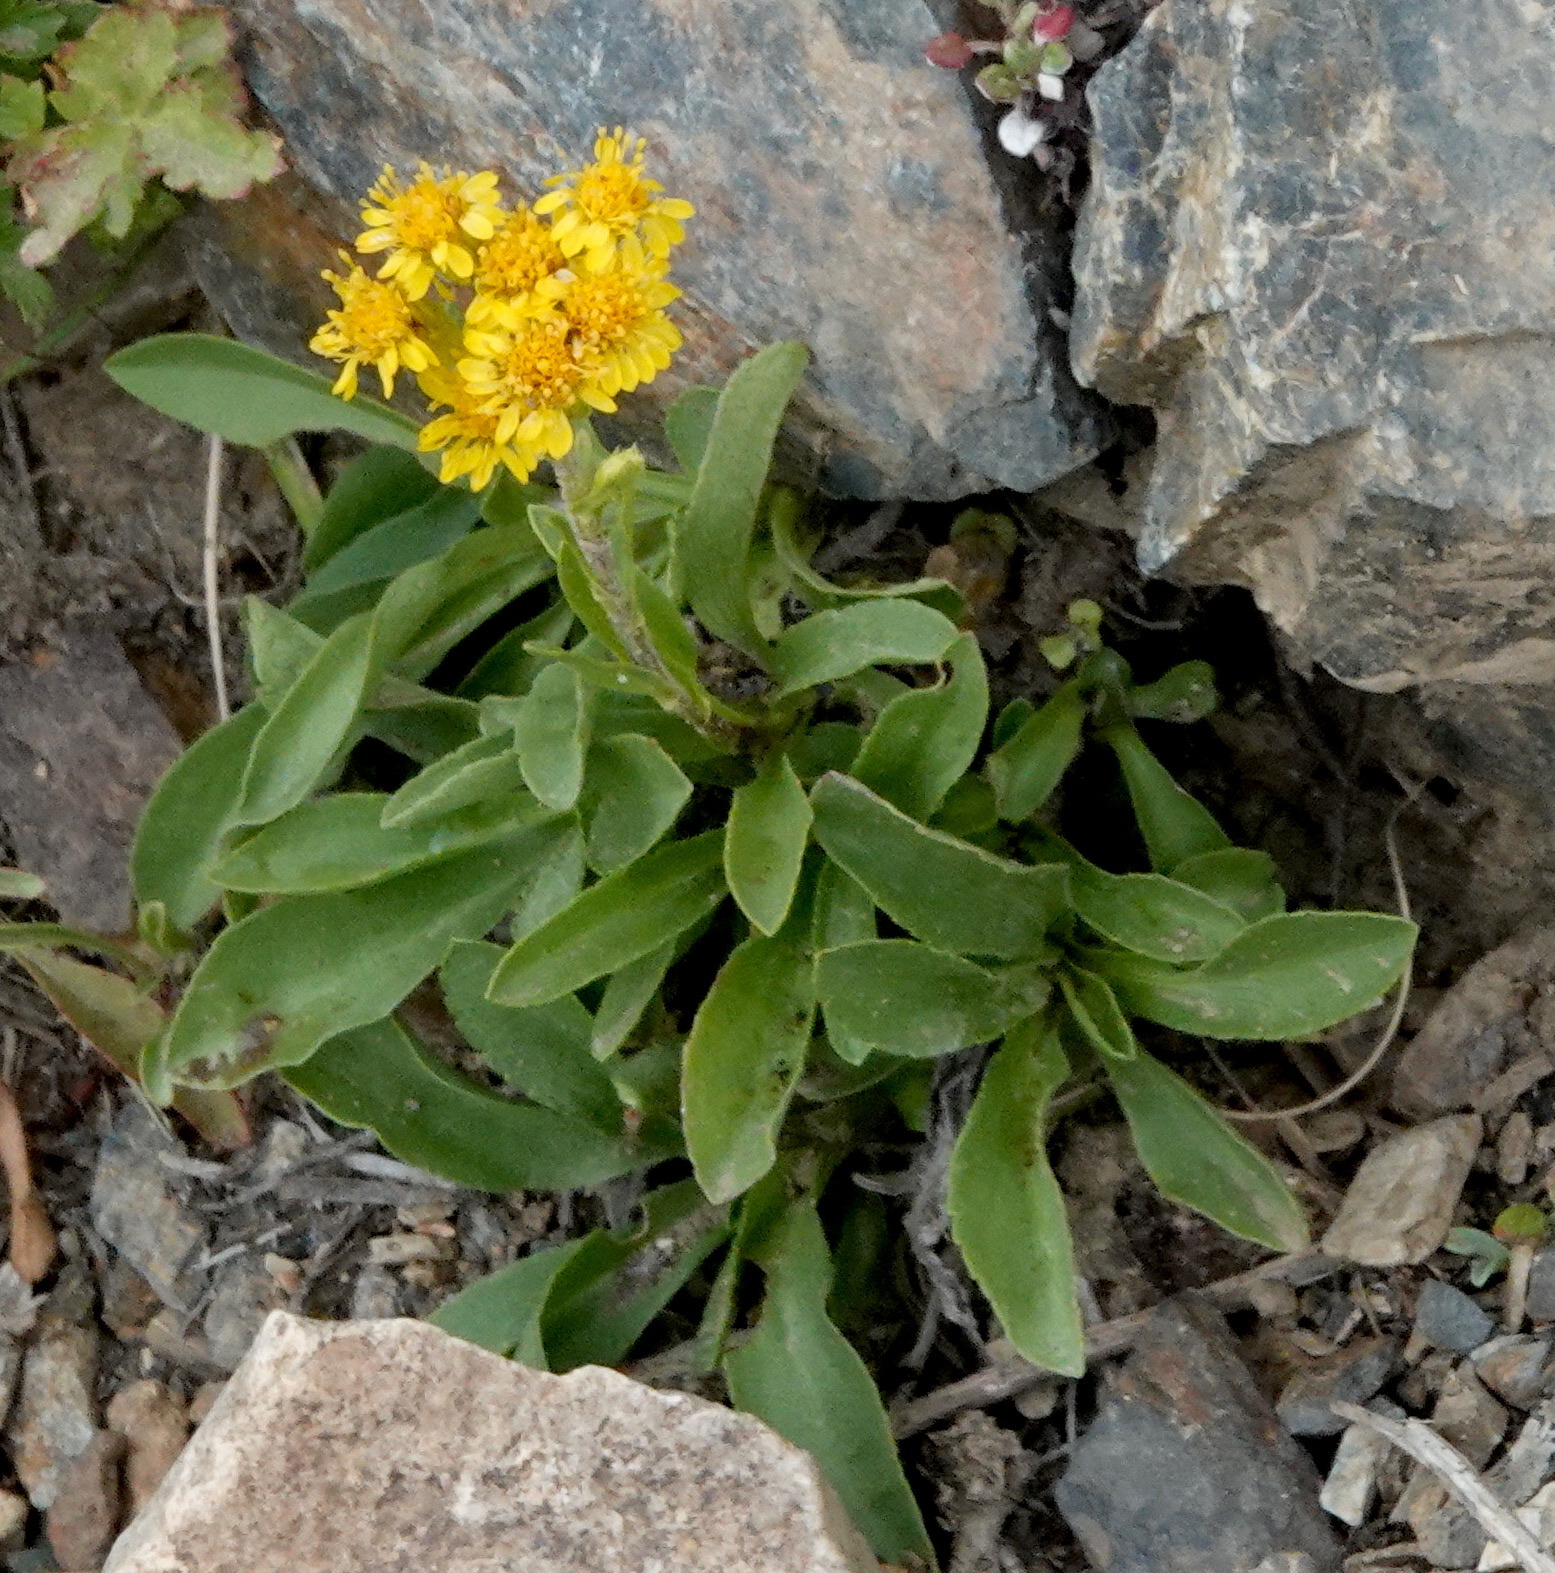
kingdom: Plantae
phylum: Tracheophyta
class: Magnoliopsida
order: Asterales
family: Asteraceae
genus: Solidago
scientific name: Solidago multiradiata
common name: Northern goldenrod
